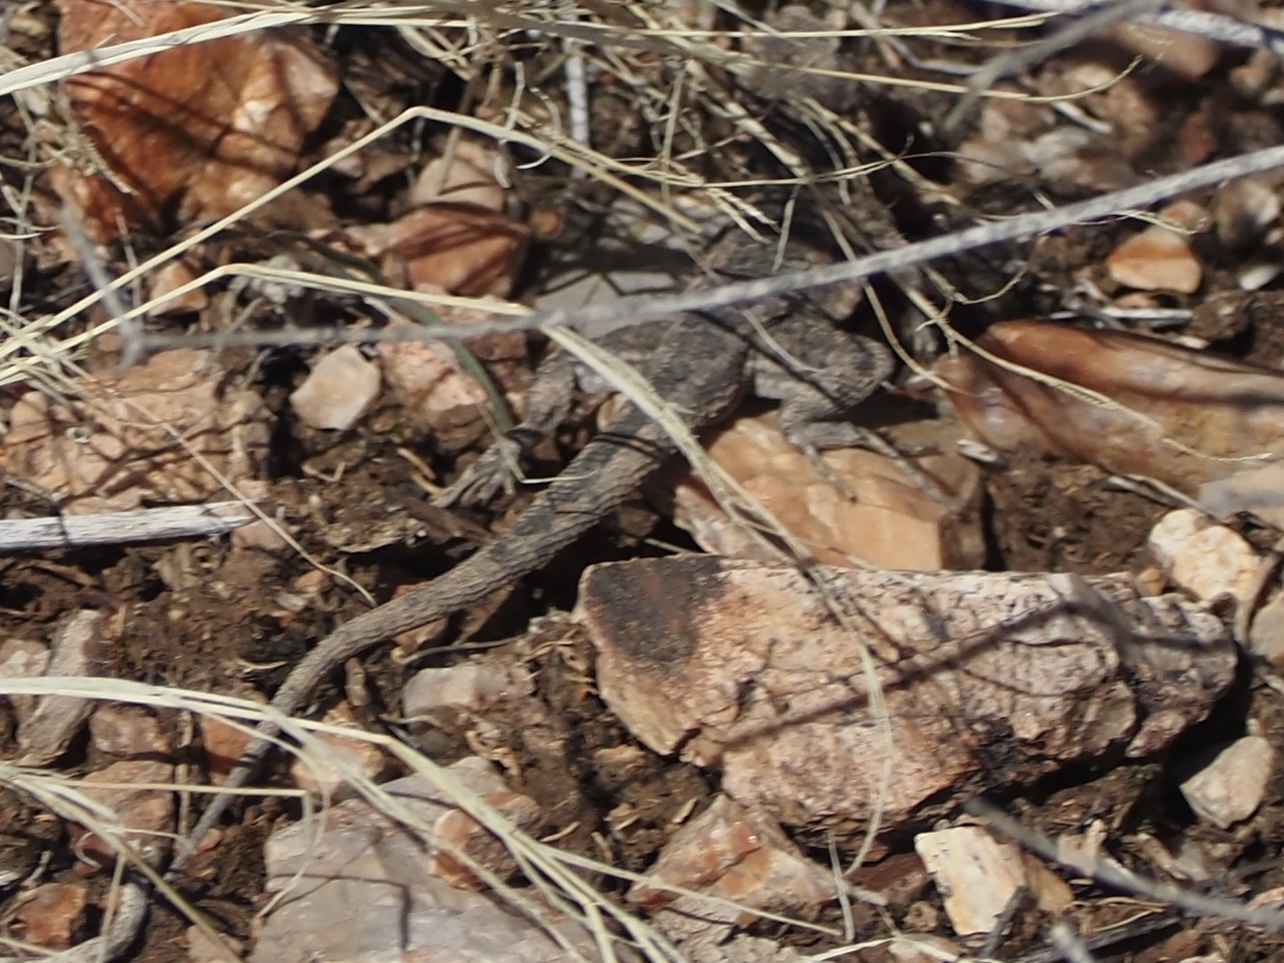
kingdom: Animalia
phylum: Chordata
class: Squamata
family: Phrynosomatidae
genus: Uta
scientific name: Uta stansburiana
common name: Side-blotched lizard
